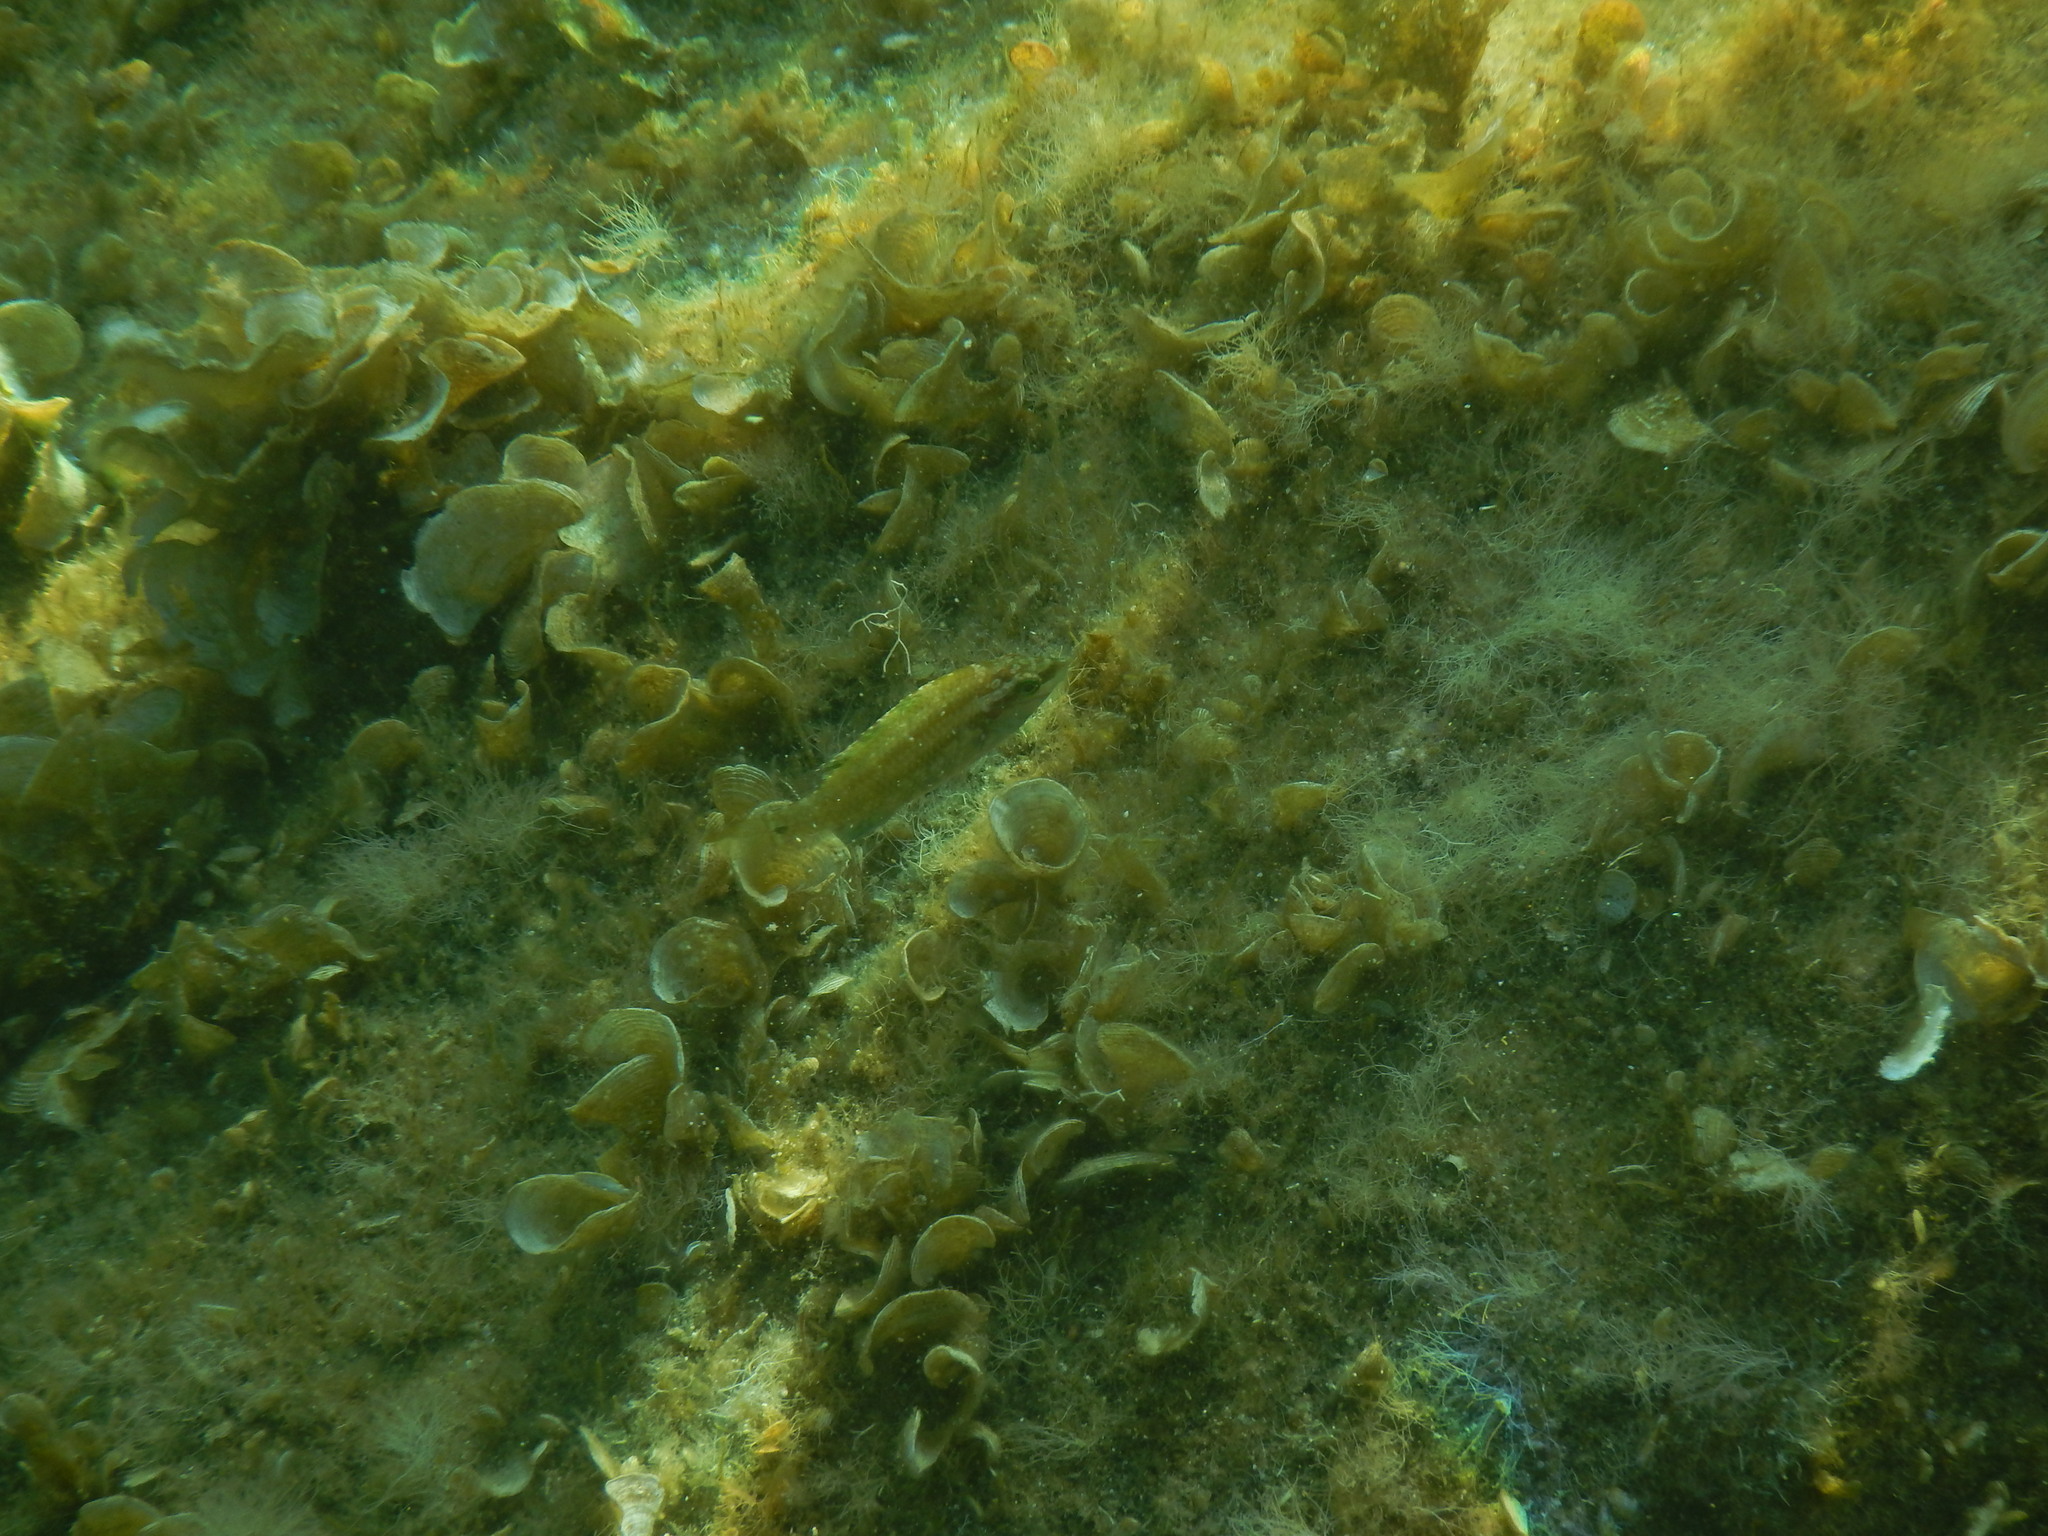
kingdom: Animalia
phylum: Chordata
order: Perciformes
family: Labridae
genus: Symphodus
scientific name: Symphodus roissali
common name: Five-spotted wrasse
